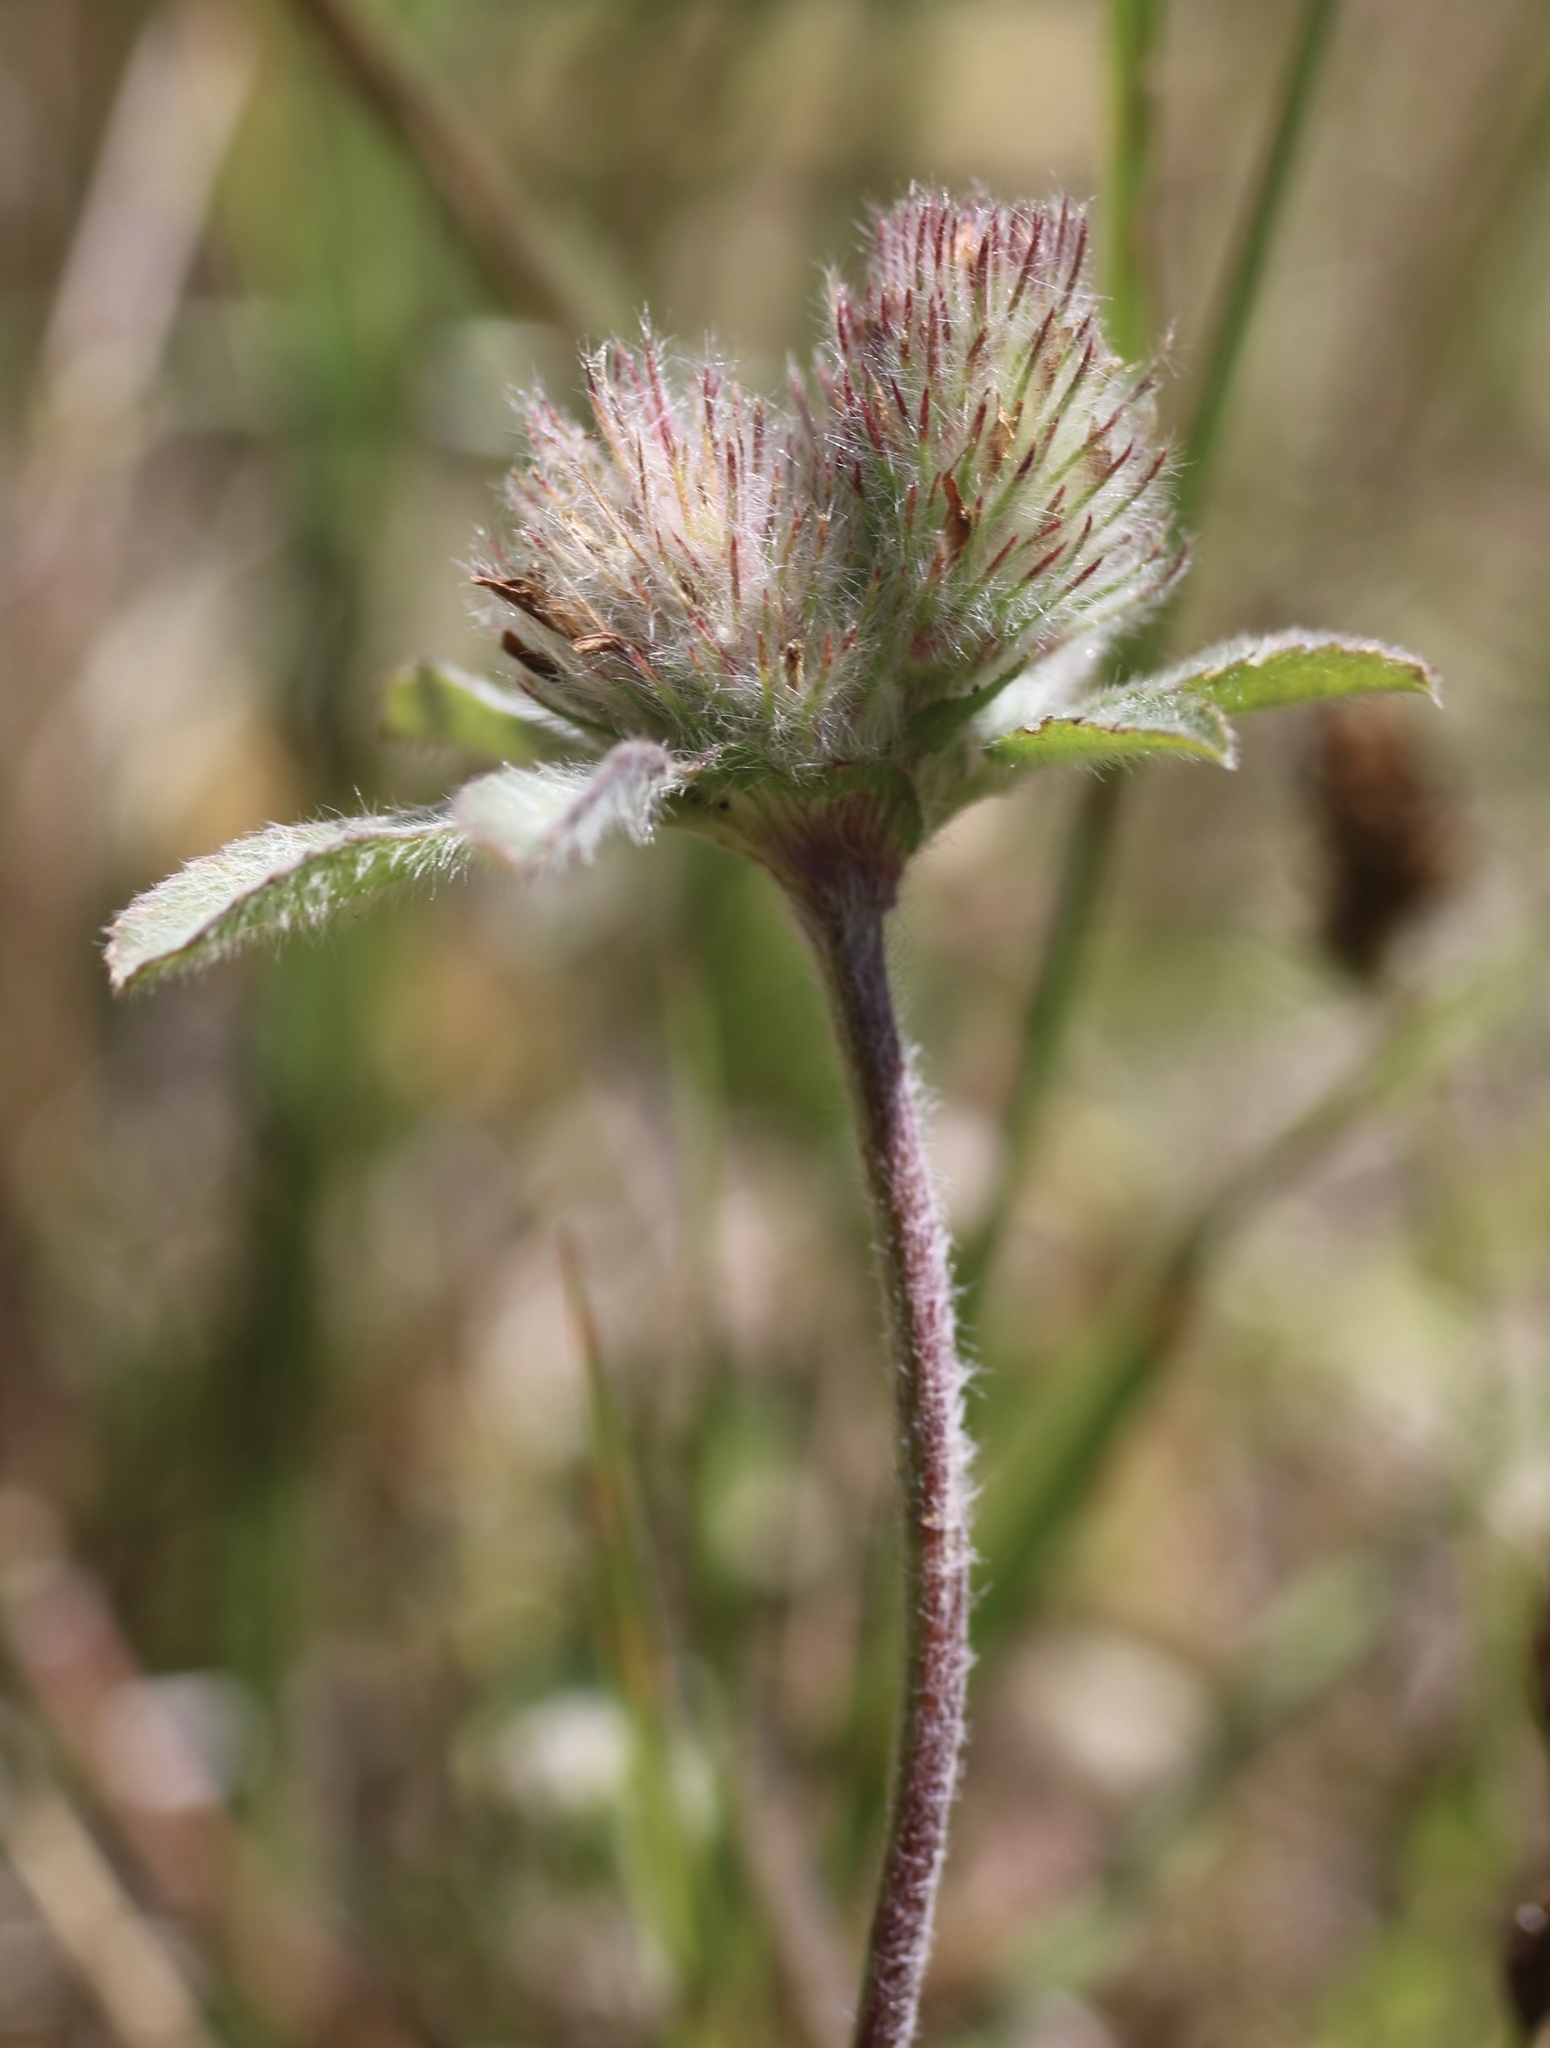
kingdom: Plantae
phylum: Tracheophyta
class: Magnoliopsida
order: Fabales
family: Fabaceae
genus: Trifolium
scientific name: Trifolium hirtum
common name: Rose clover
